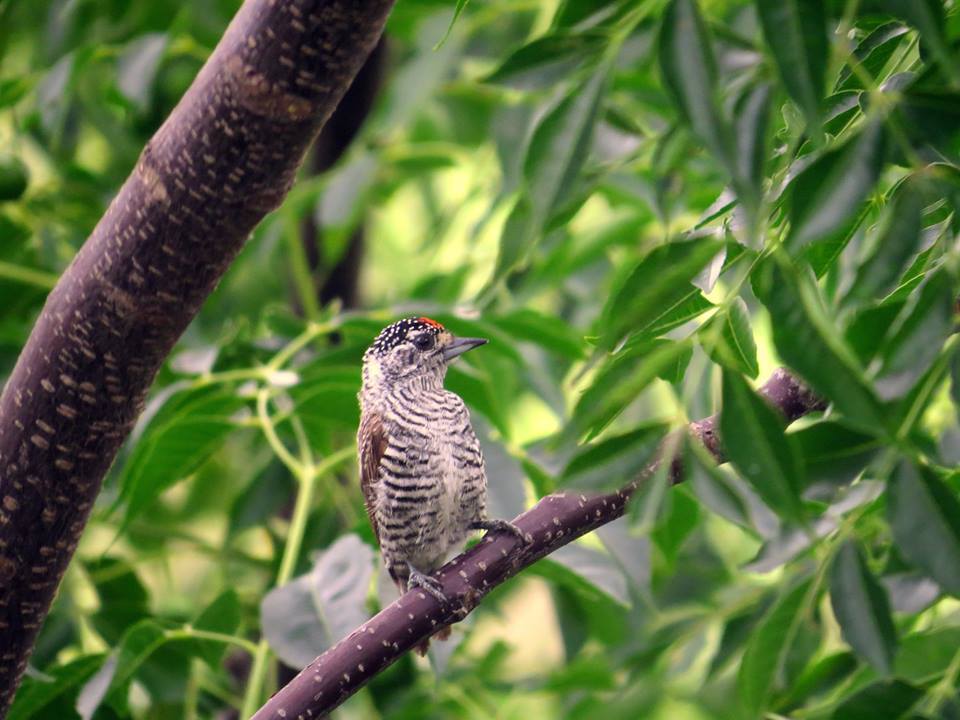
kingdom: Animalia
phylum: Chordata
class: Aves
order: Piciformes
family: Picidae
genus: Picumnus
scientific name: Picumnus cirratus
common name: White-barred piculet
